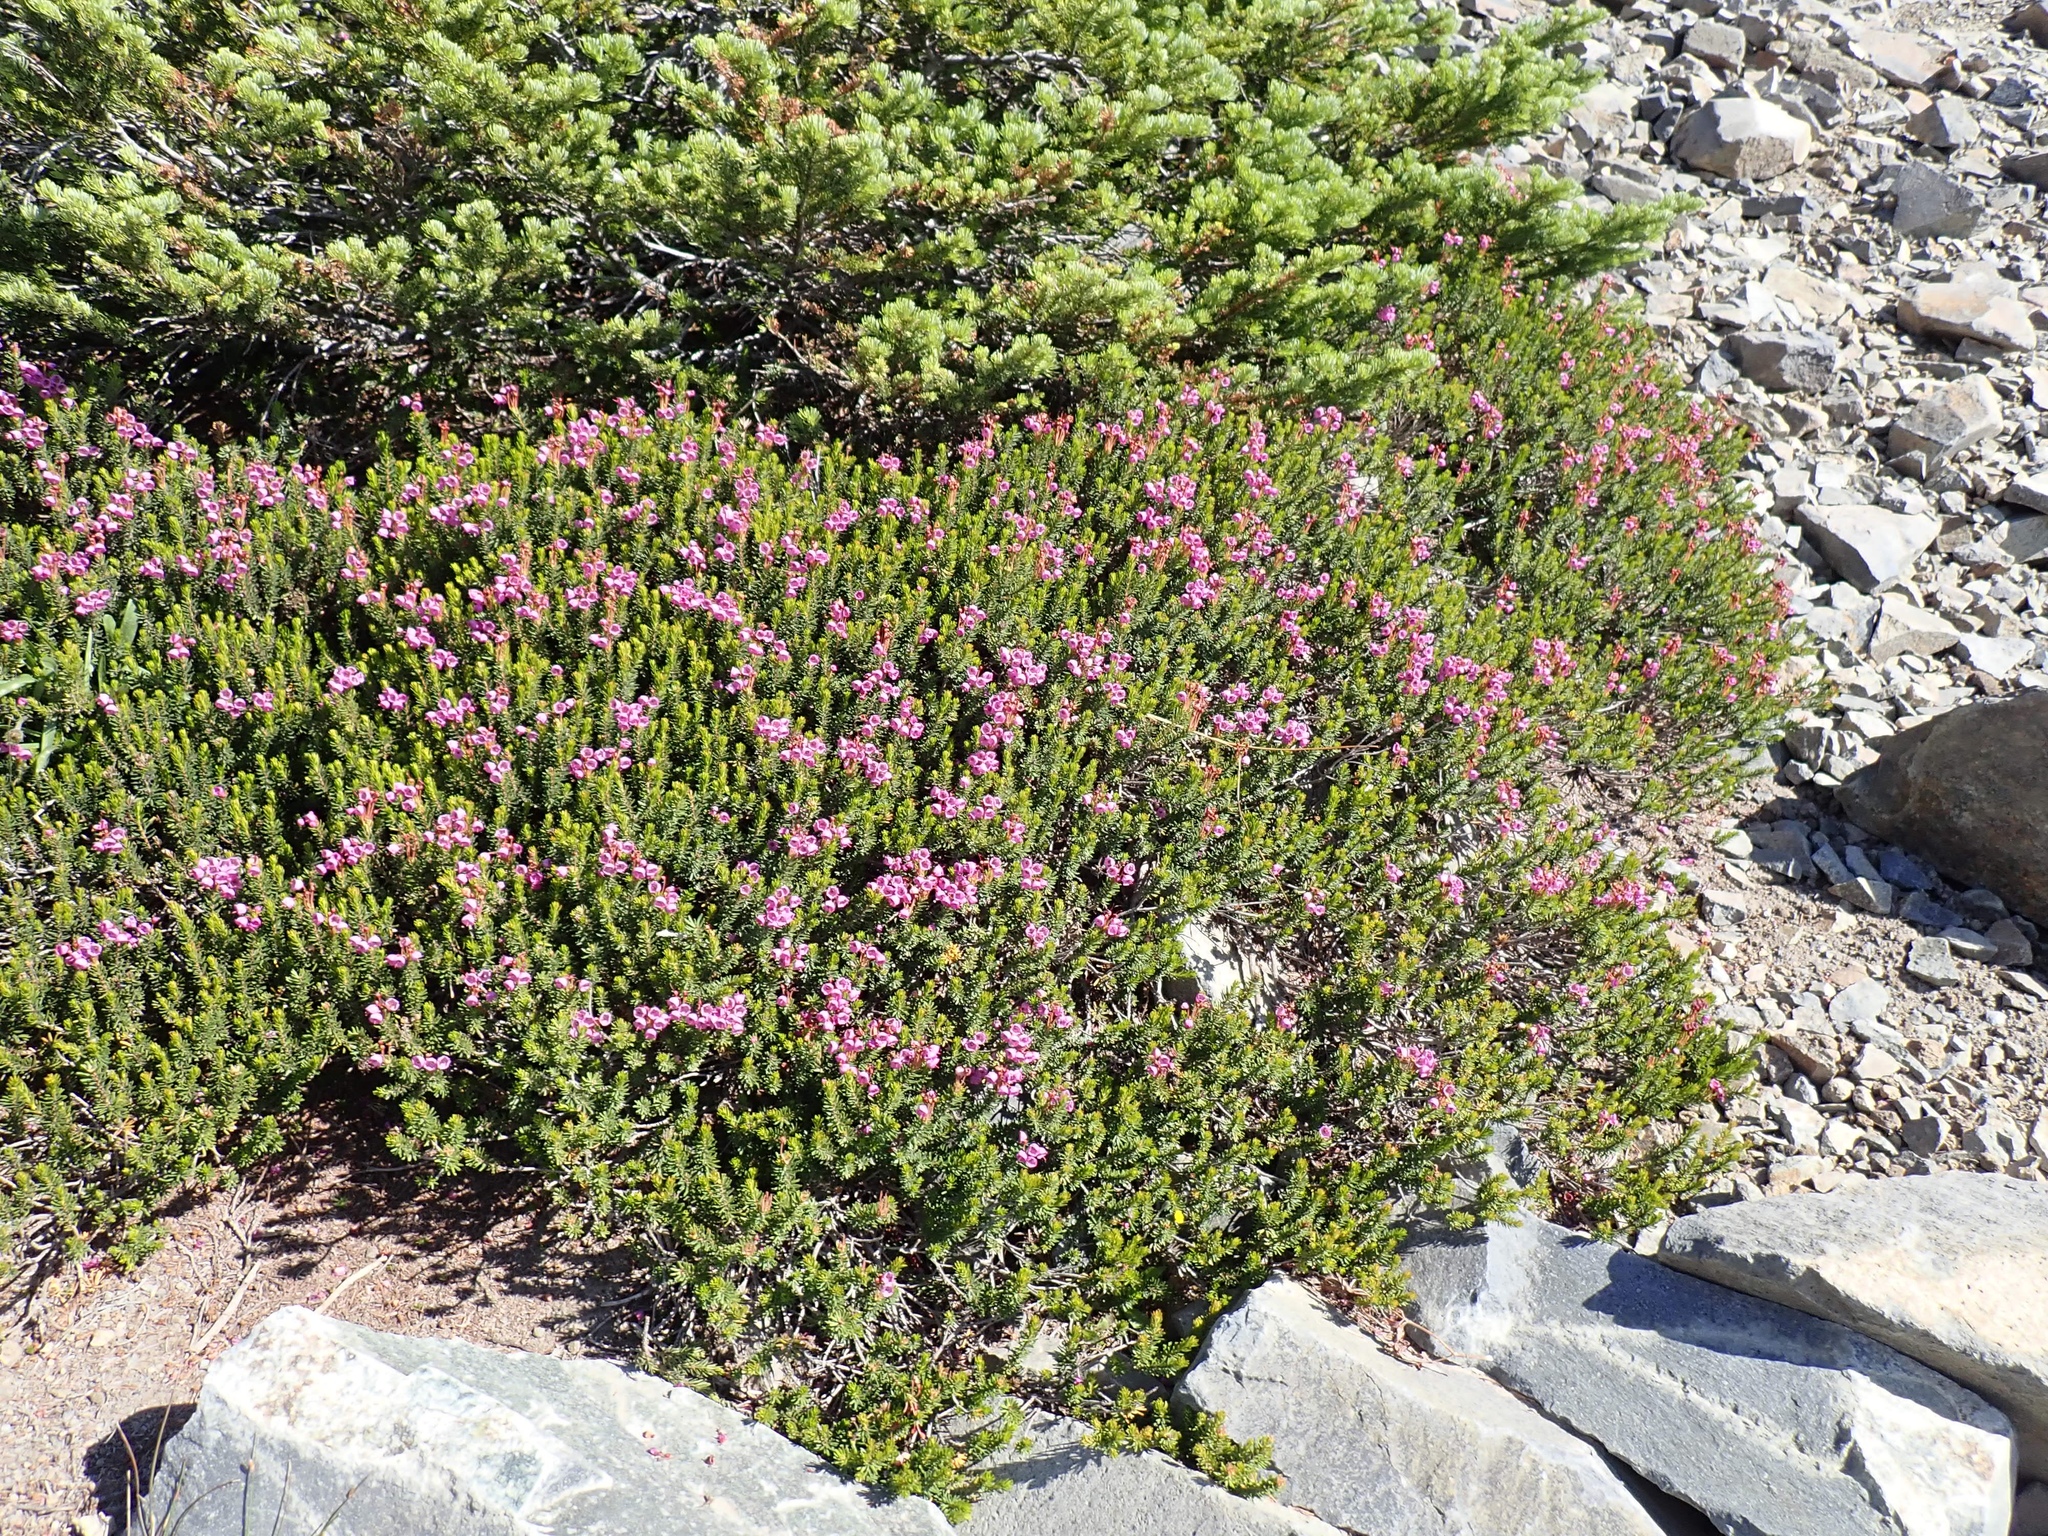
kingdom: Plantae
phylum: Tracheophyta
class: Magnoliopsida
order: Ericales
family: Ericaceae
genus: Phyllodoce
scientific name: Phyllodoce empetriformis
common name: Pink mountain heather
